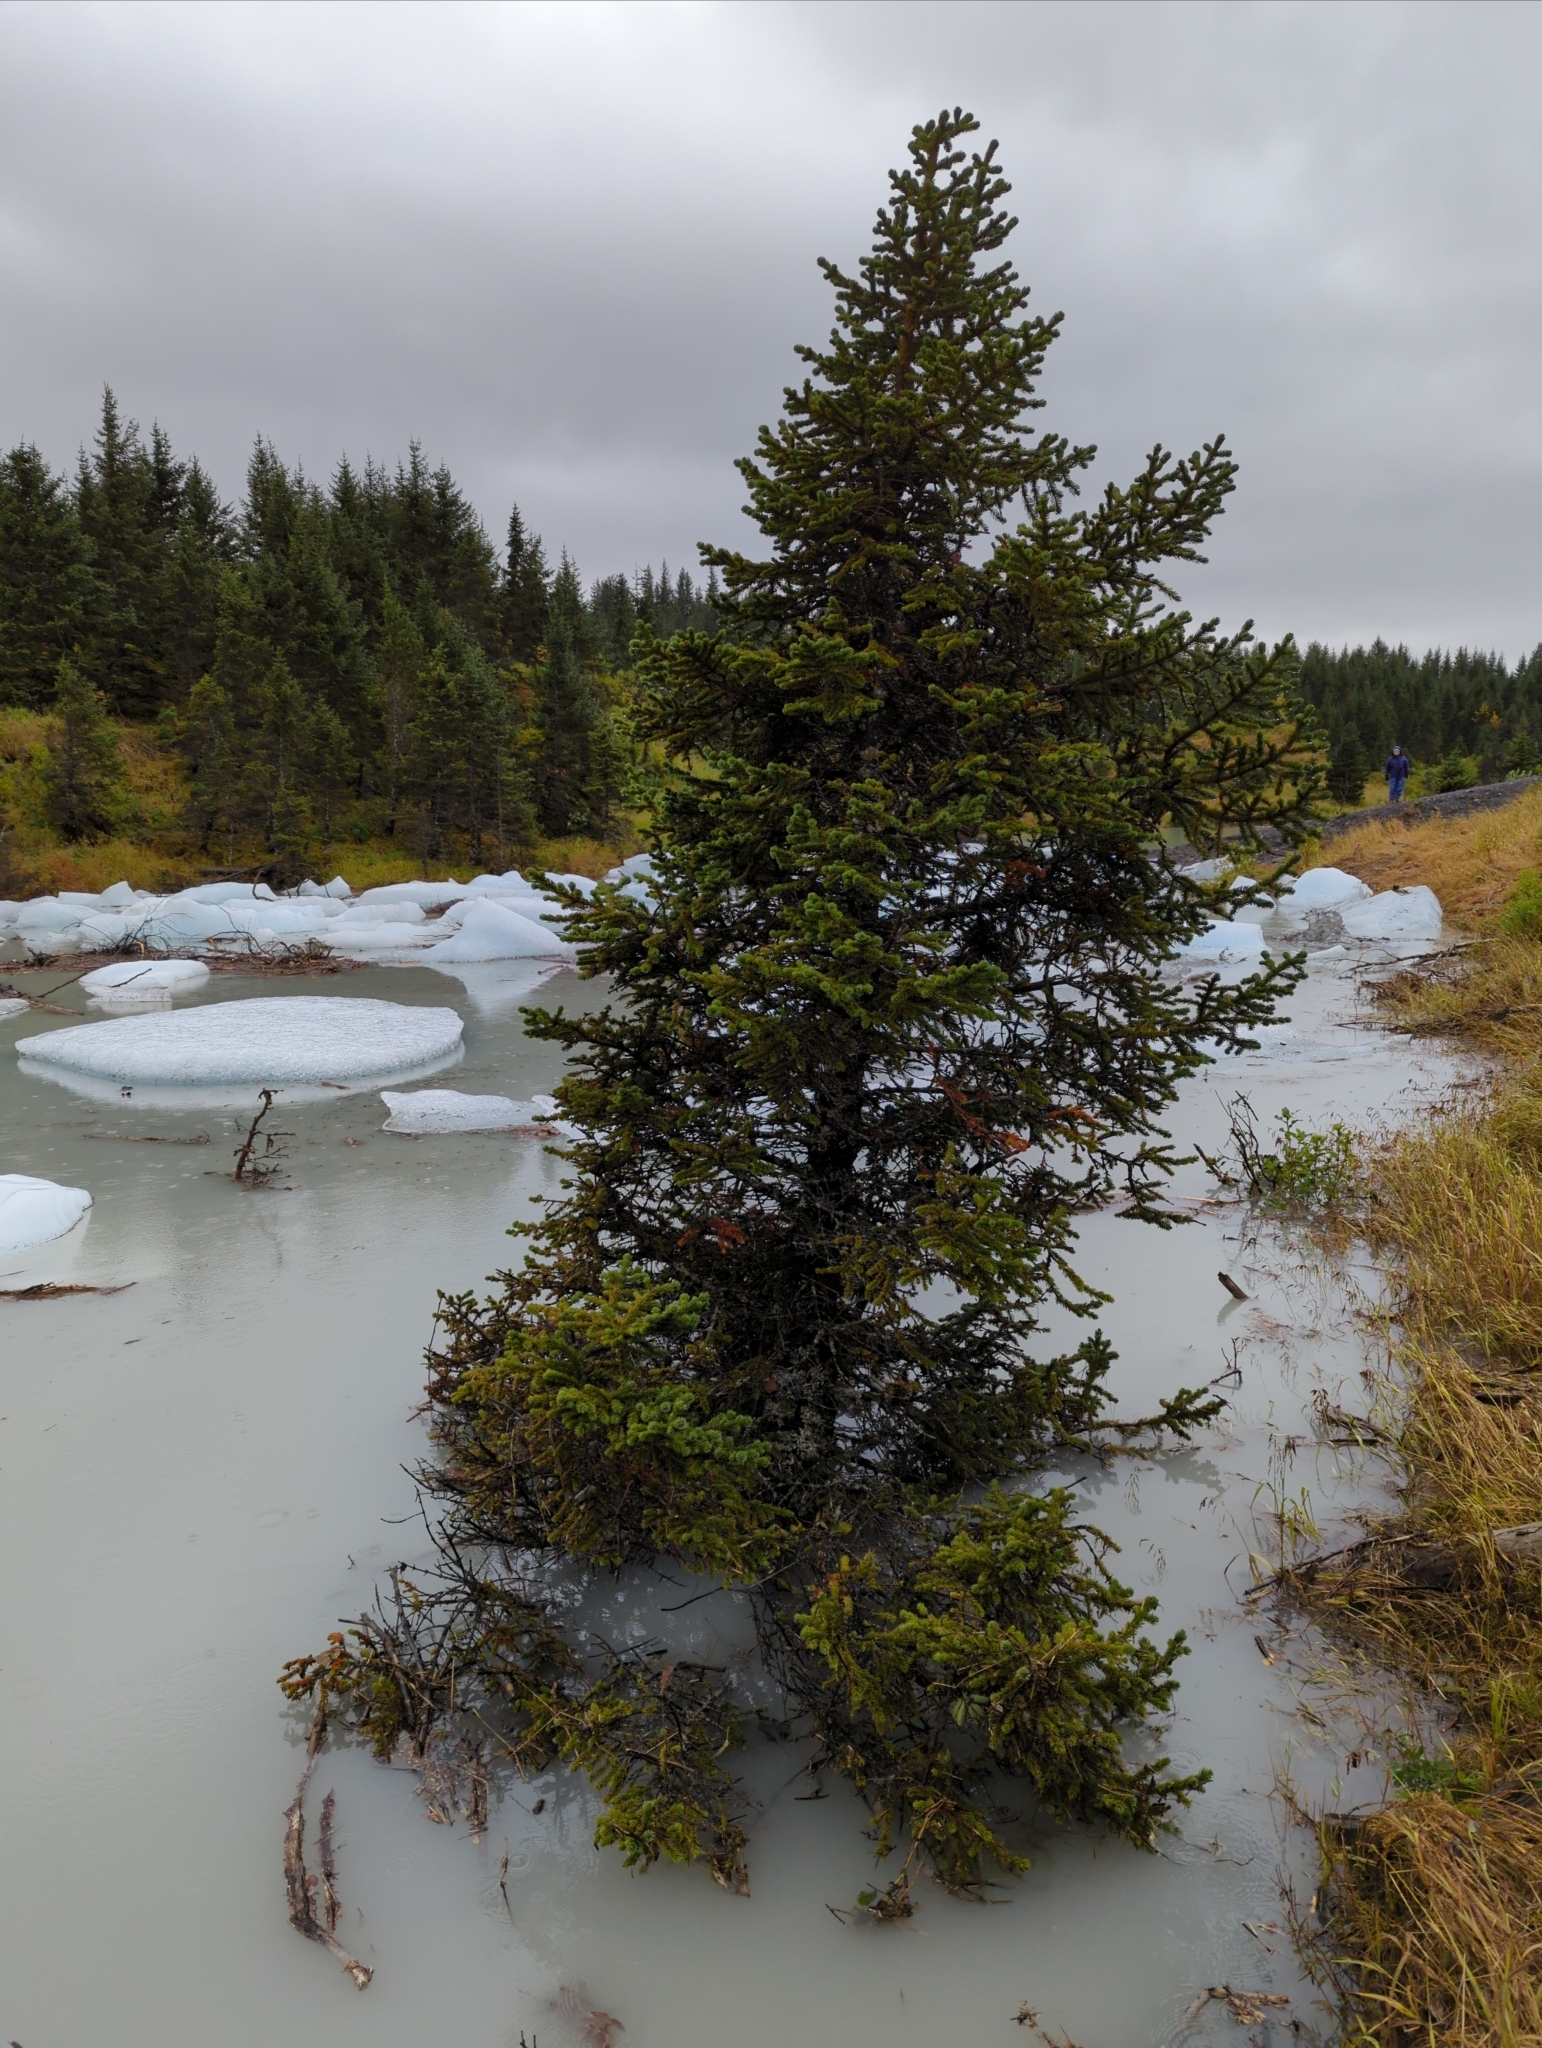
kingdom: Plantae
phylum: Tracheophyta
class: Pinopsida
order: Pinales
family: Pinaceae
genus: Picea
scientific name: Picea sitchensis
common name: Sitka spruce
